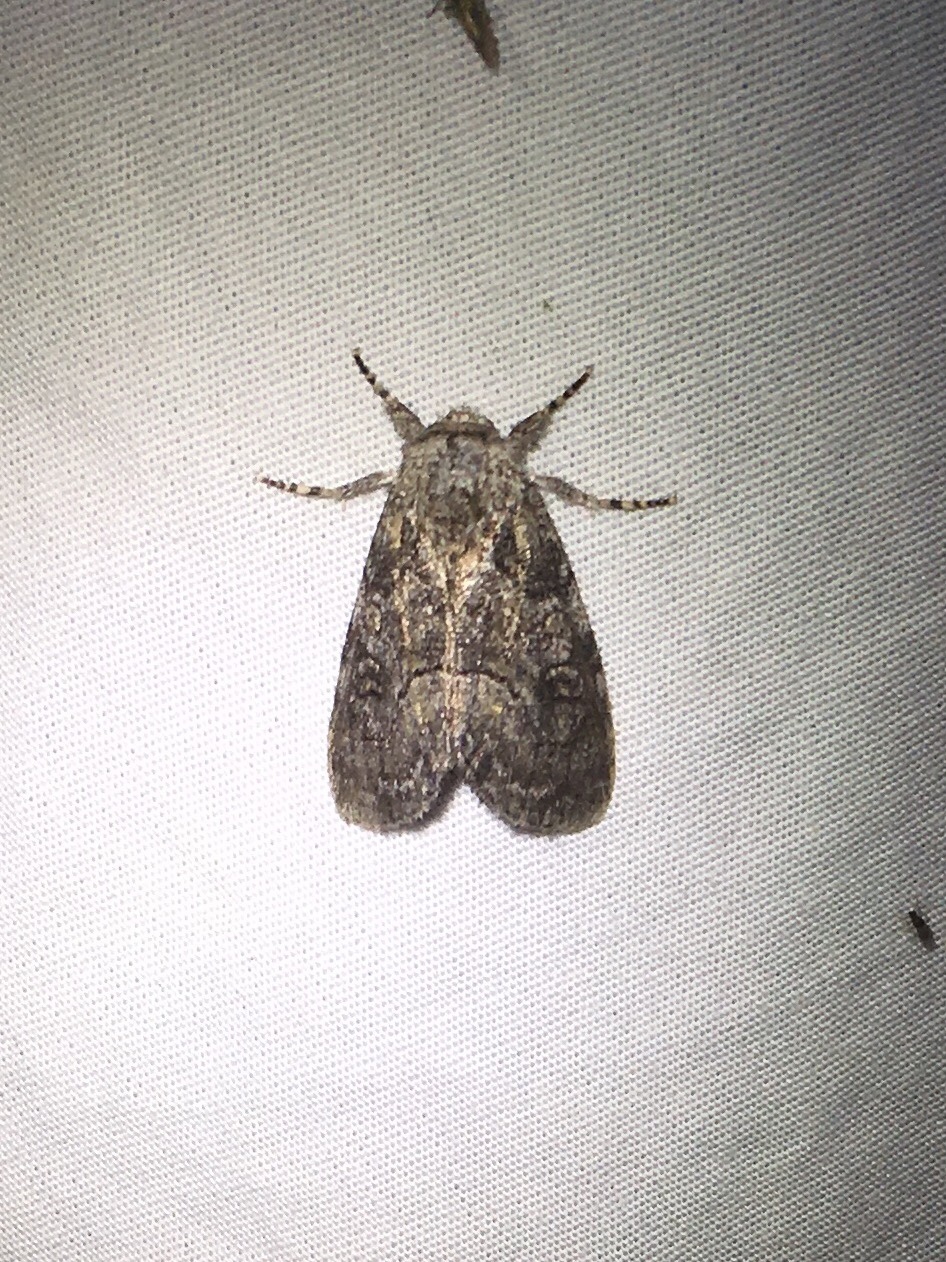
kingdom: Animalia
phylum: Arthropoda
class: Insecta
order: Lepidoptera
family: Noctuidae
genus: Raphia
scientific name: Raphia frater
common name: Brother
